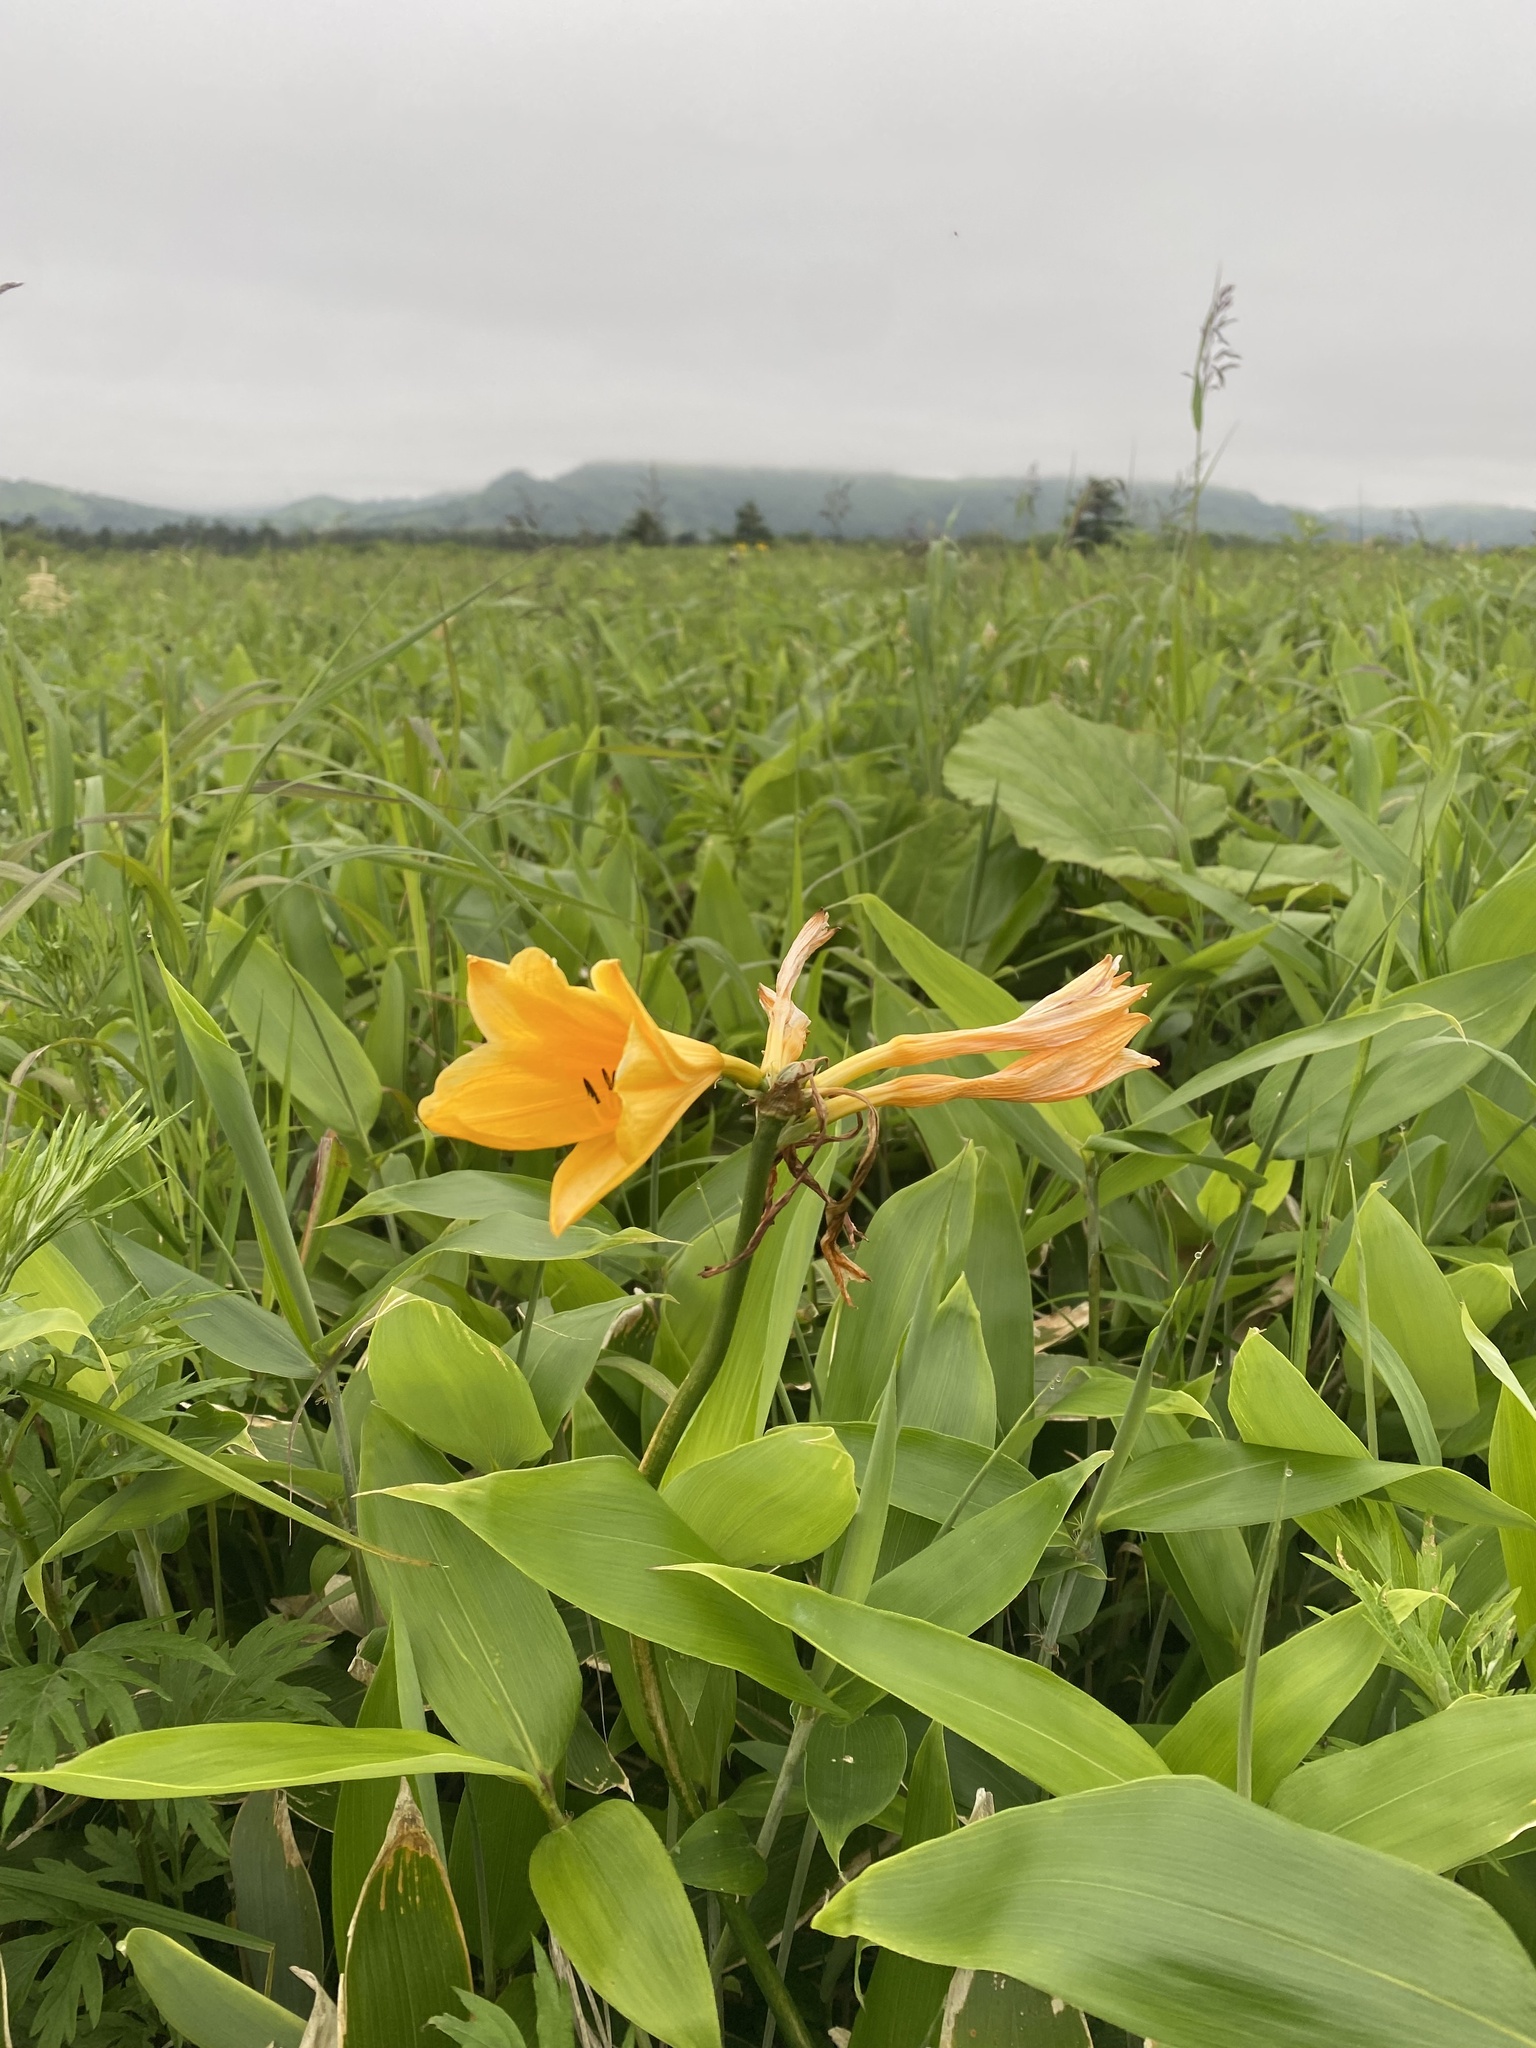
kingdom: Plantae
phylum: Tracheophyta
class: Liliopsida
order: Asparagales
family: Asphodelaceae
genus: Hemerocallis
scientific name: Hemerocallis middendorffii
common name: Amur day-lily
